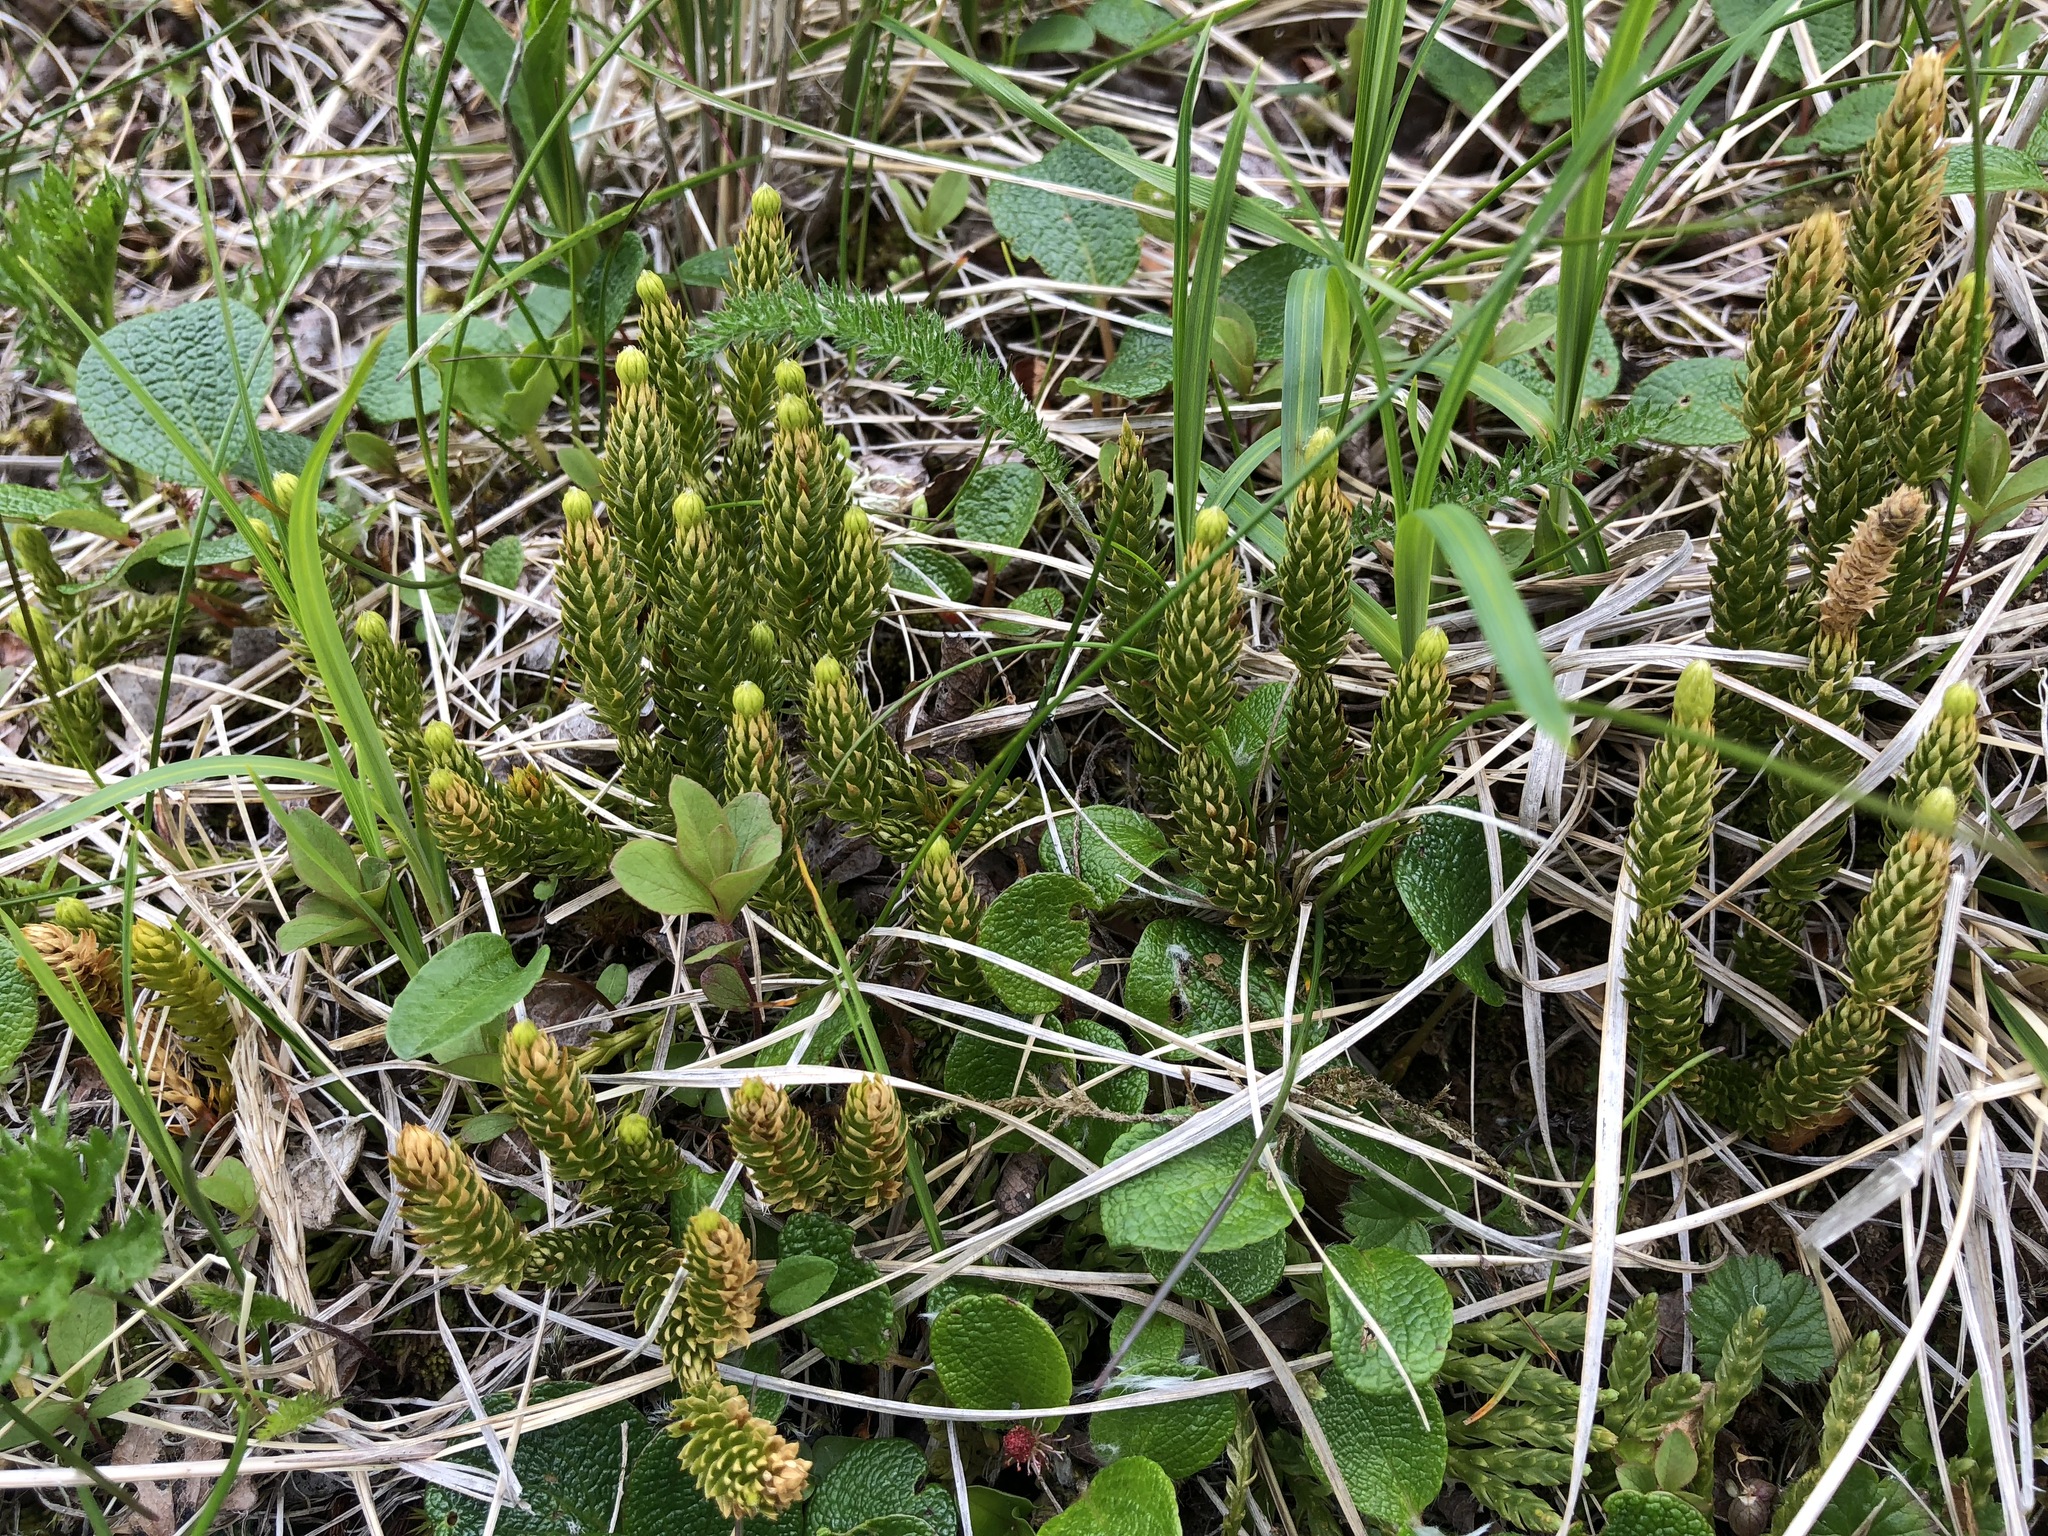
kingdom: Plantae
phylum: Tracheophyta
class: Lycopodiopsida
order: Lycopodiales
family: Lycopodiaceae
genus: Spinulum
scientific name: Spinulum annotinum
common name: Interrupted club-moss
